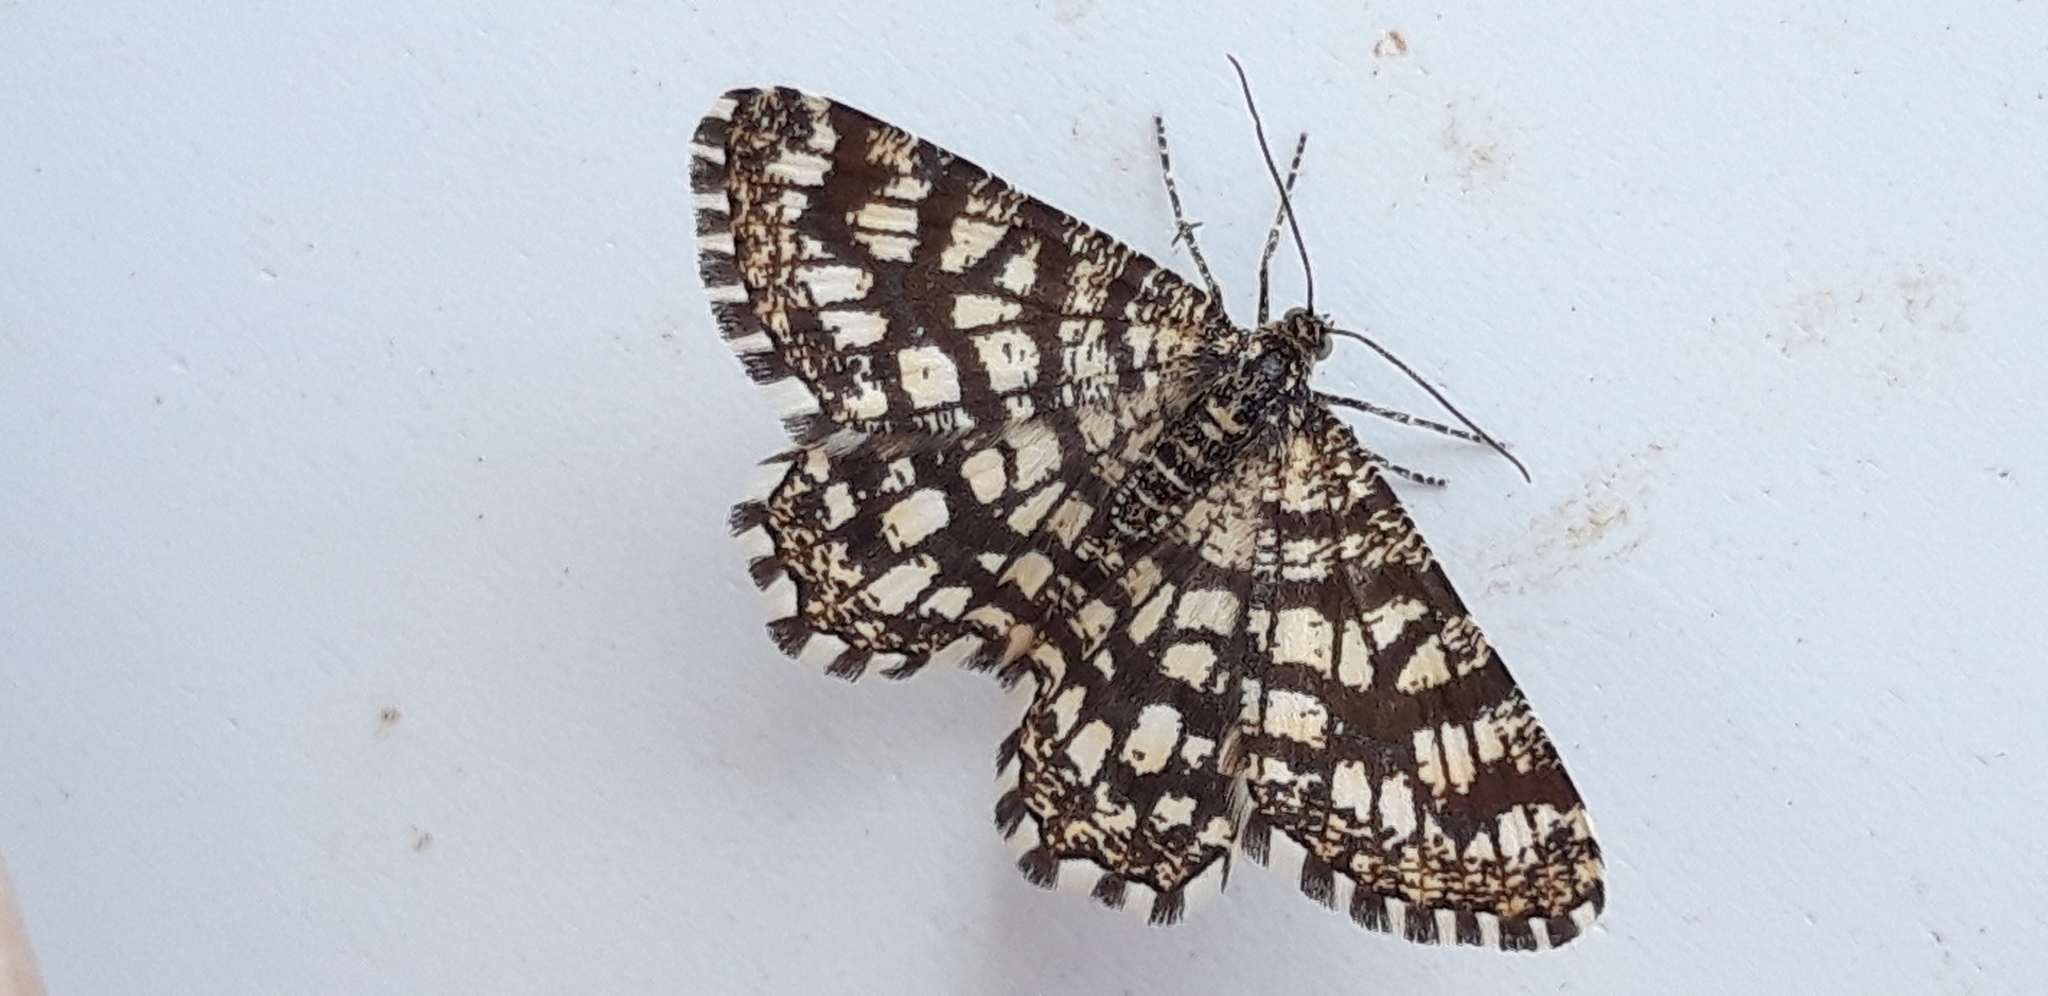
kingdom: Animalia
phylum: Arthropoda
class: Insecta
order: Lepidoptera
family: Geometridae
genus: Chiasmia
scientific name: Chiasmia clathrata
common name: Latticed heath
